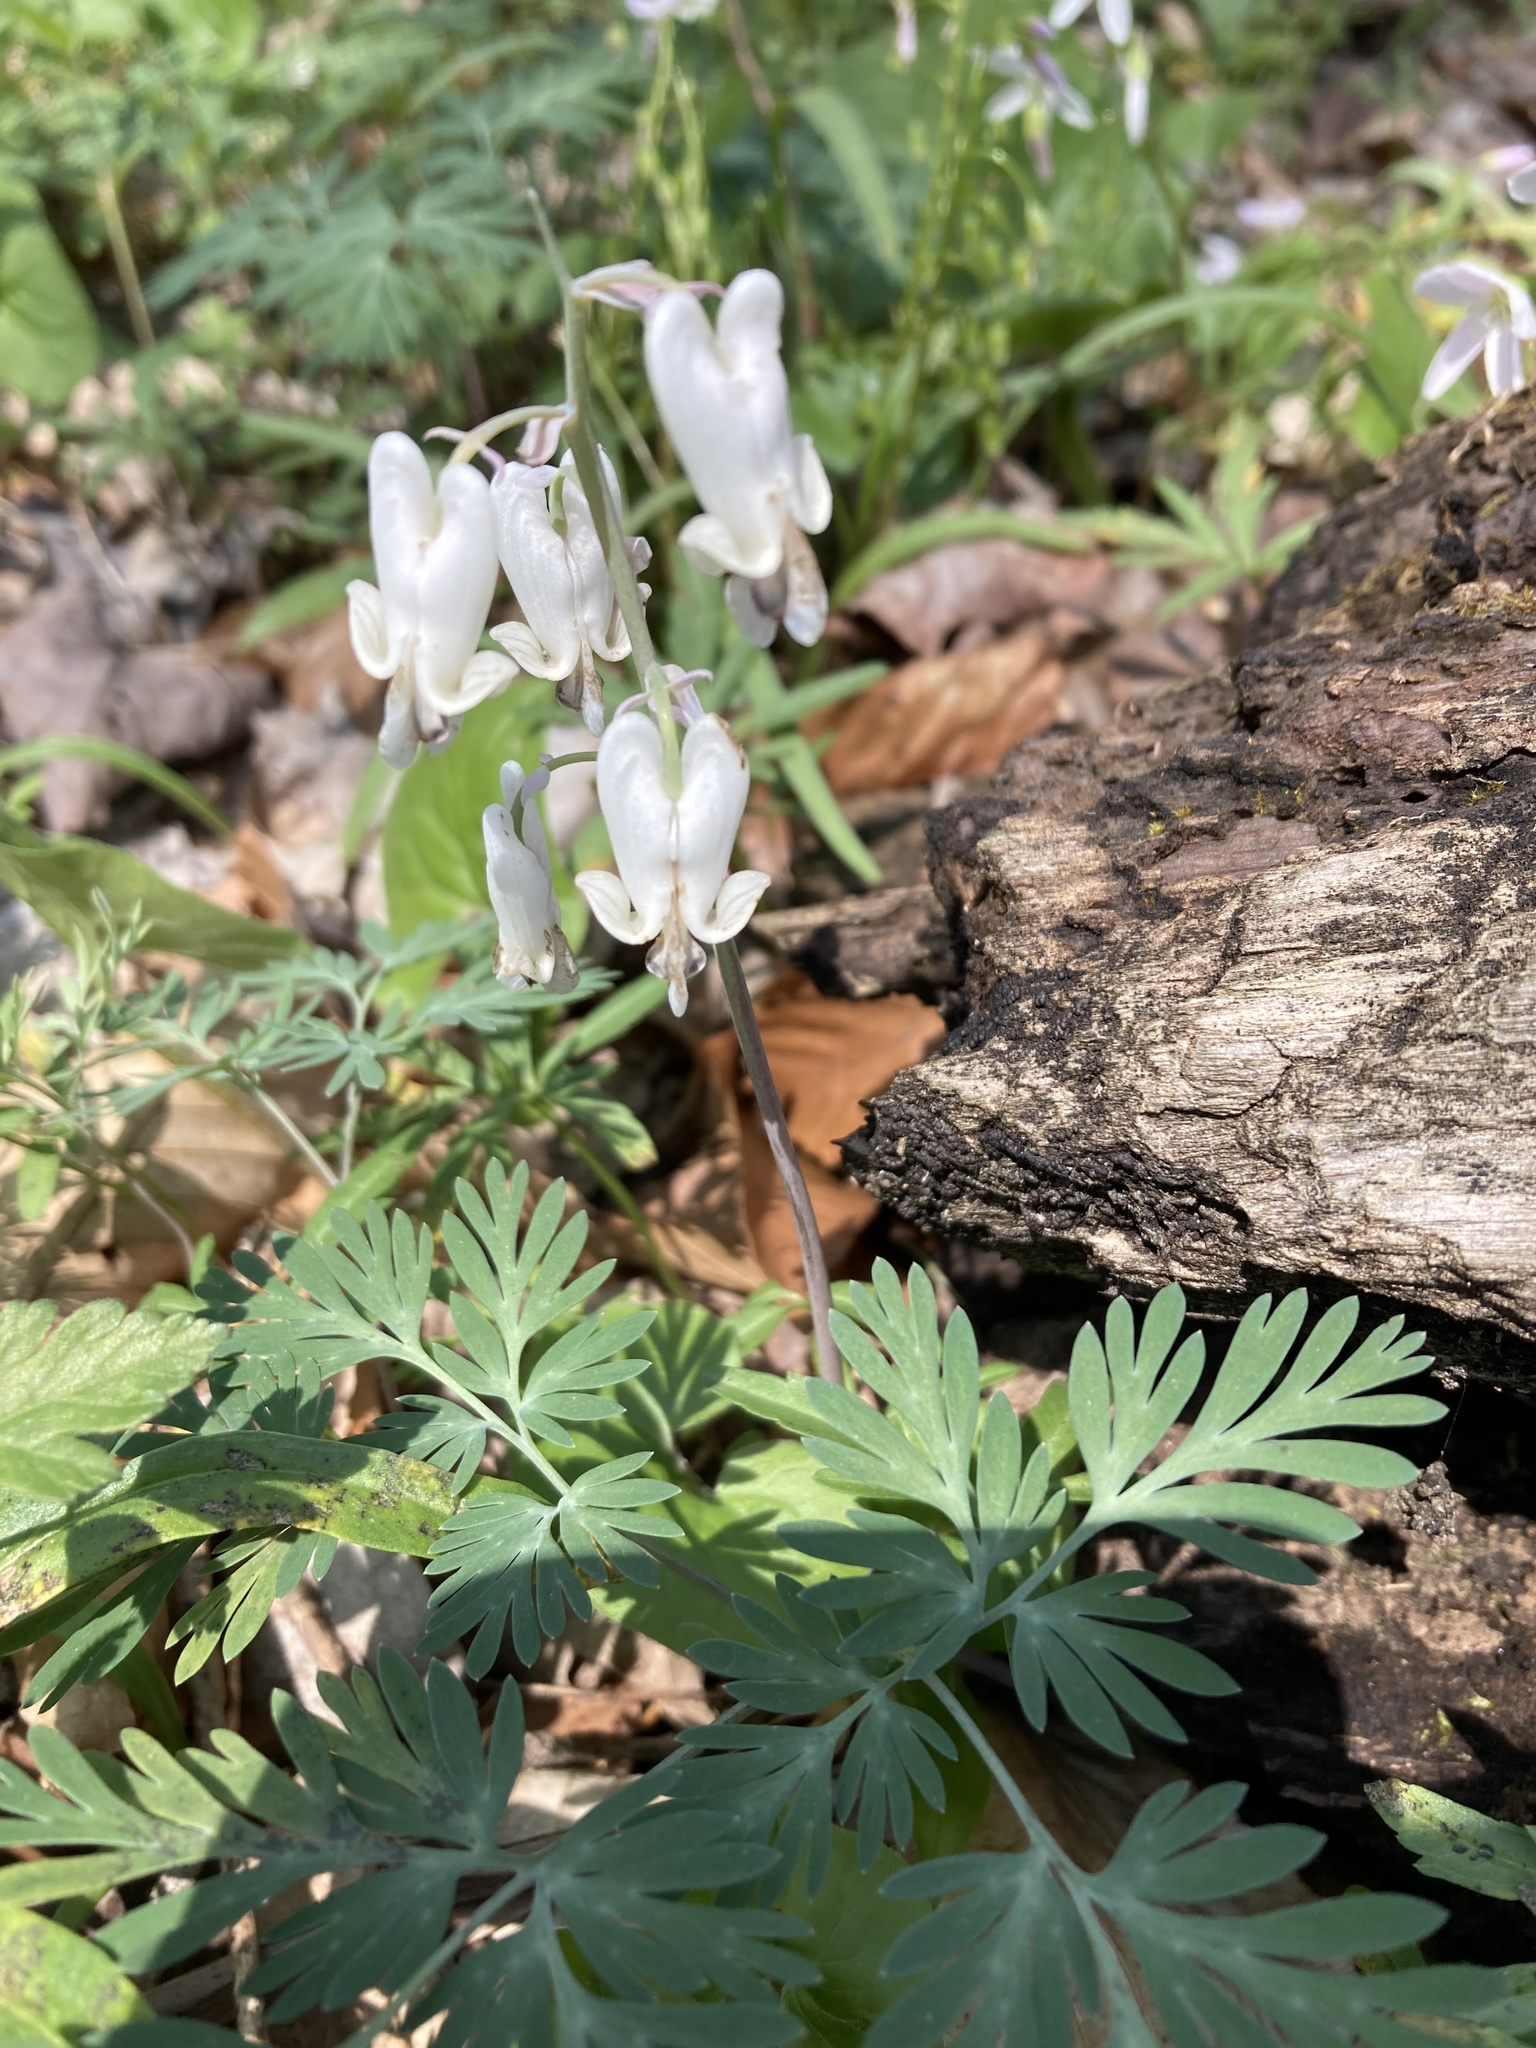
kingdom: Plantae
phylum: Tracheophyta
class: Magnoliopsida
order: Ranunculales
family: Papaveraceae
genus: Dicentra
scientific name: Dicentra canadensis
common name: Squirrel-corn
